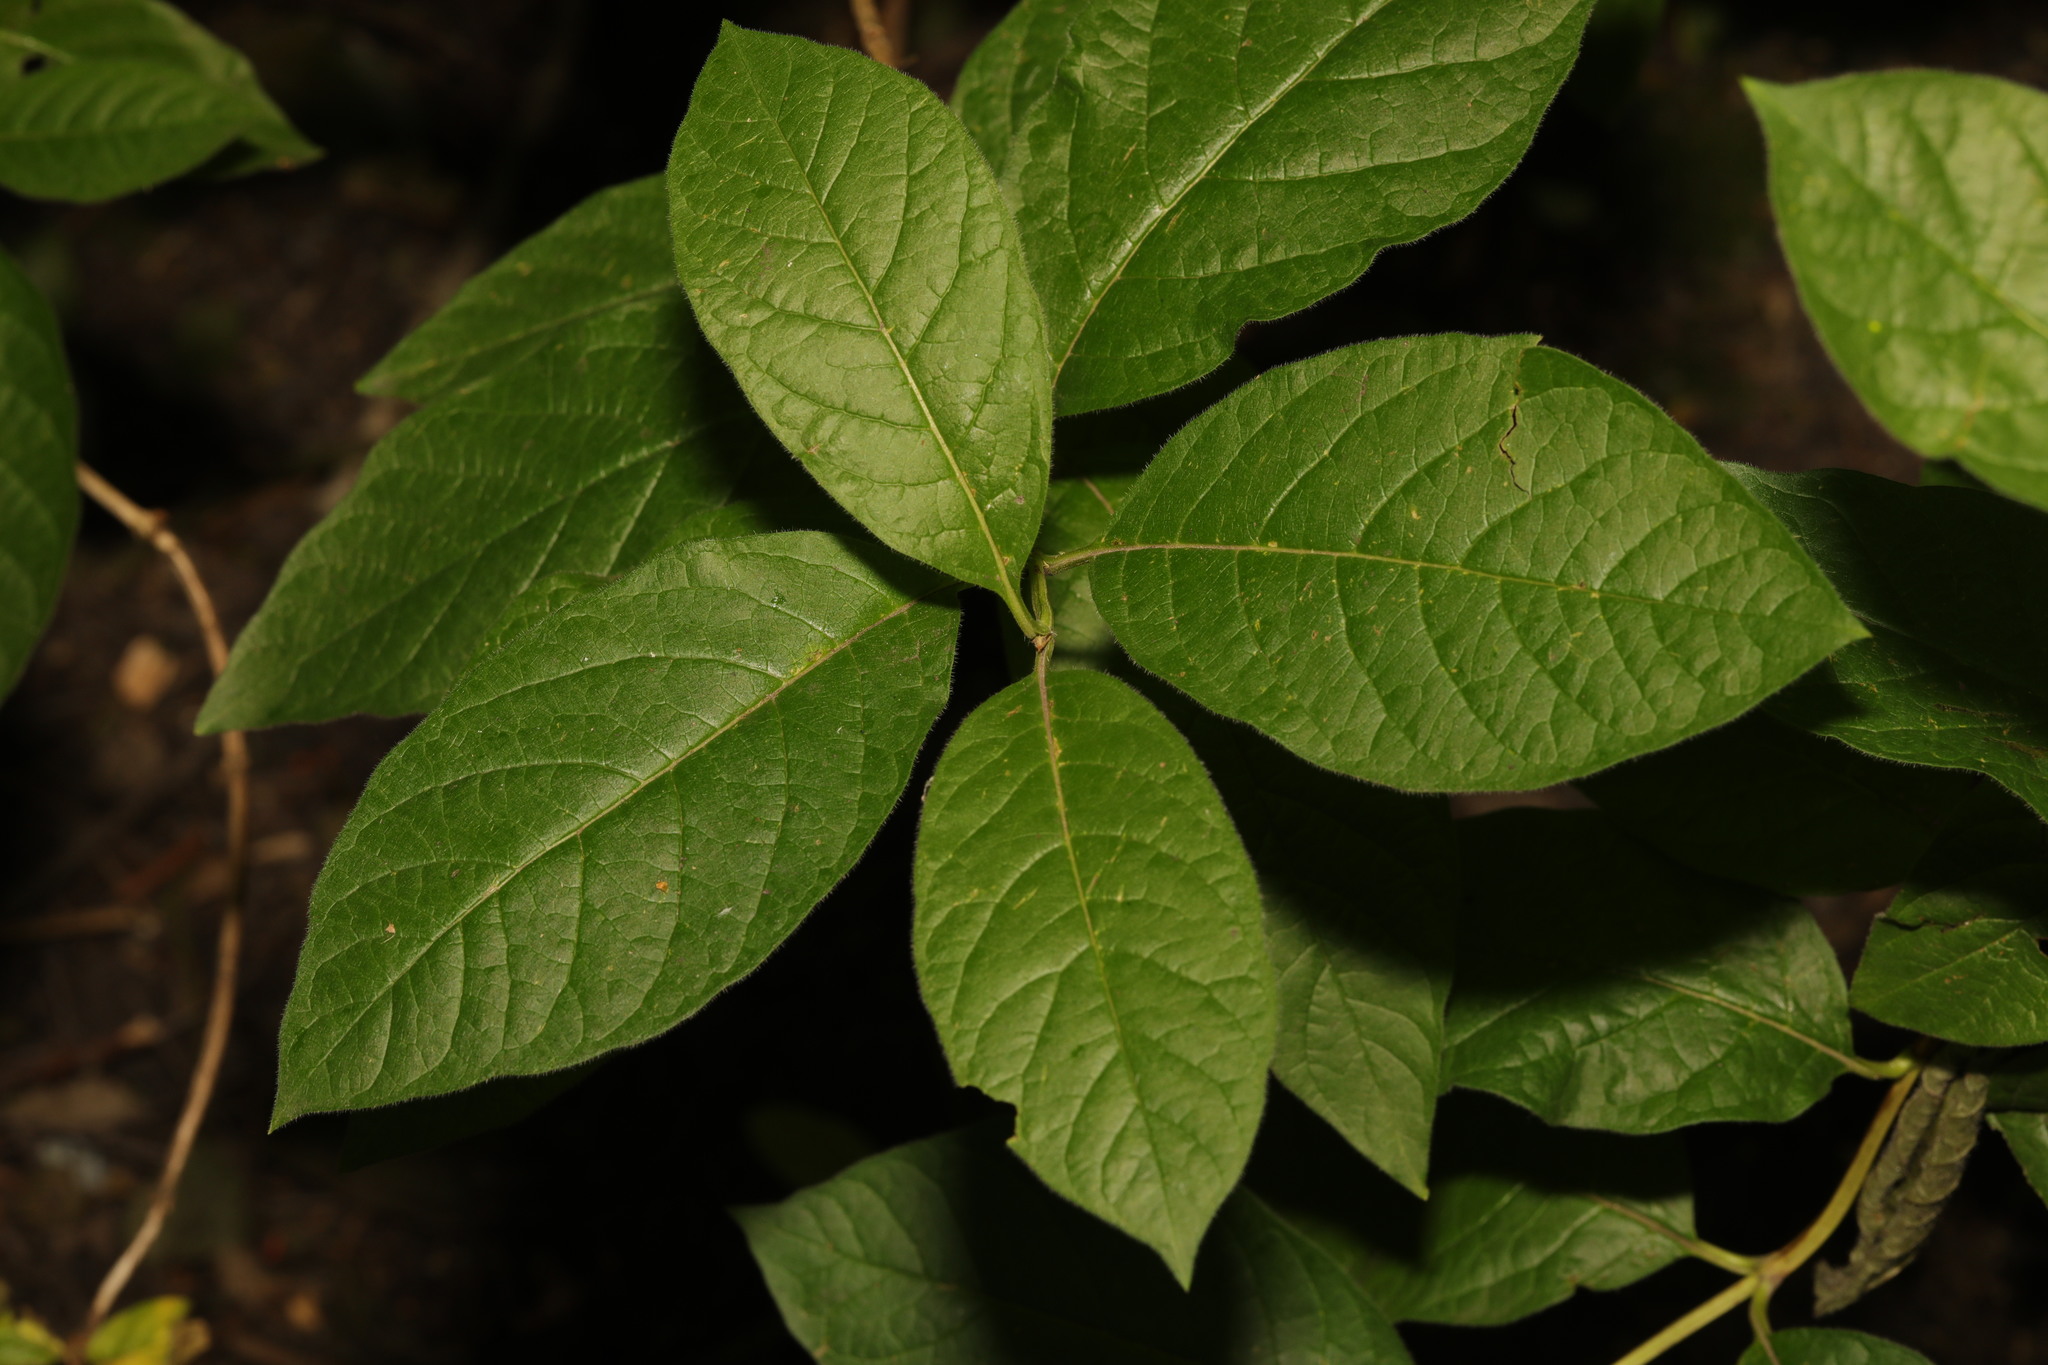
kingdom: Plantae
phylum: Tracheophyta
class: Magnoliopsida
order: Rosales
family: Rosaceae
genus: Prunus
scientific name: Prunus padus
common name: Bird cherry
